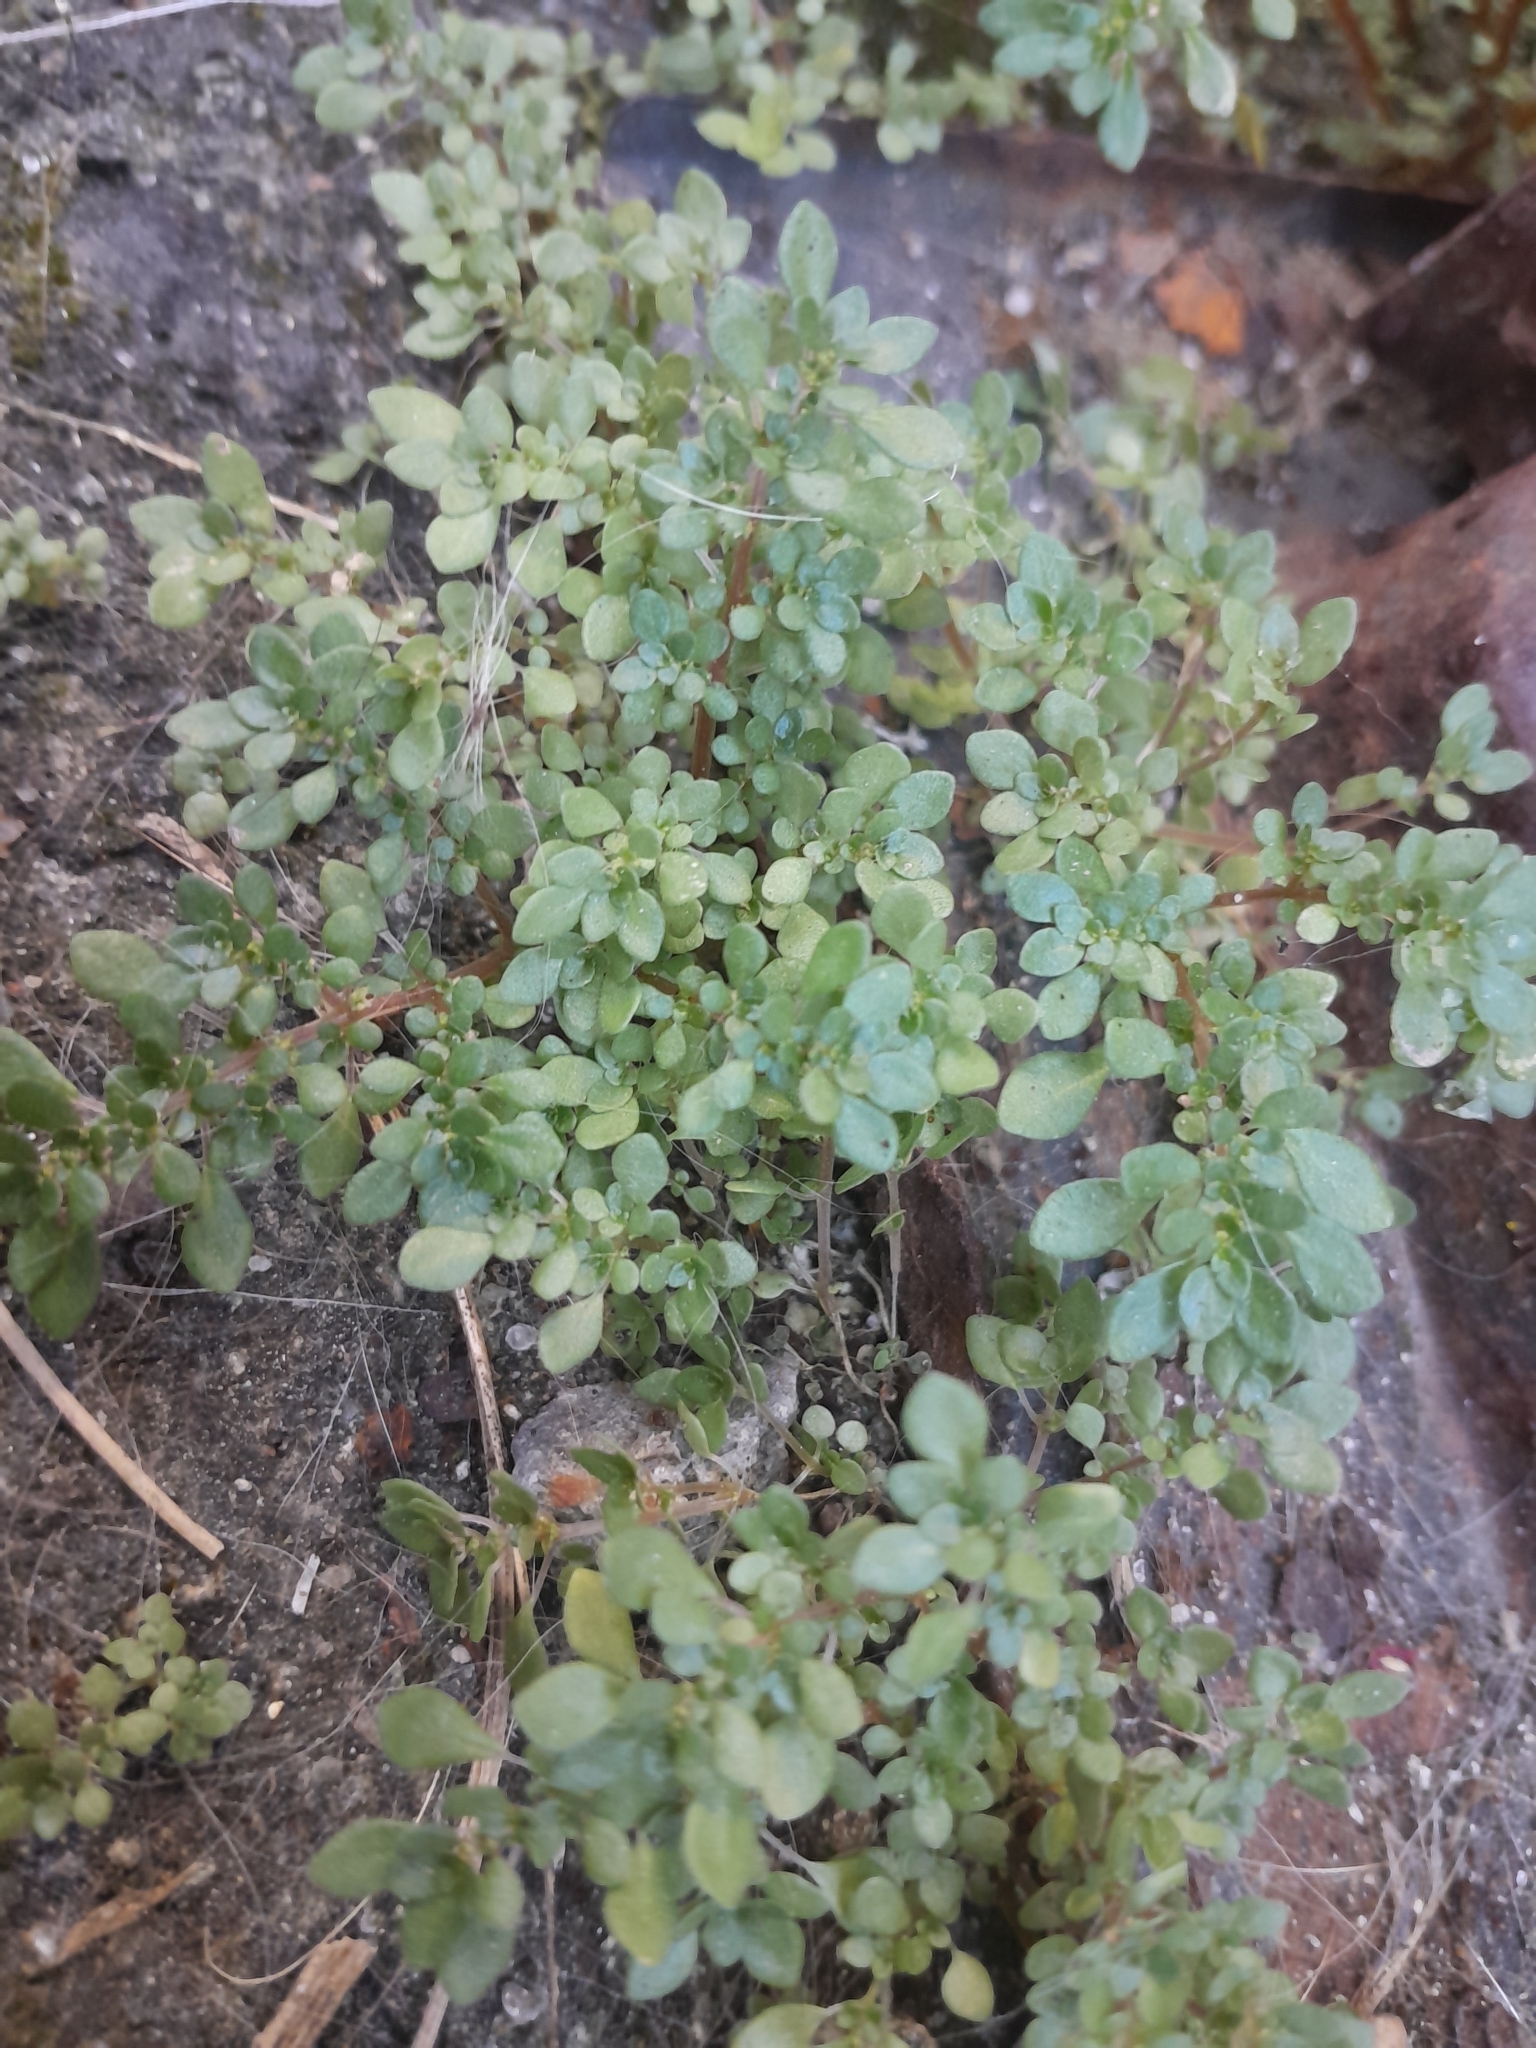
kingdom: Plantae
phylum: Tracheophyta
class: Magnoliopsida
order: Rosales
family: Urticaceae
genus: Pilea
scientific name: Pilea microphylla
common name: Artillery-plant
